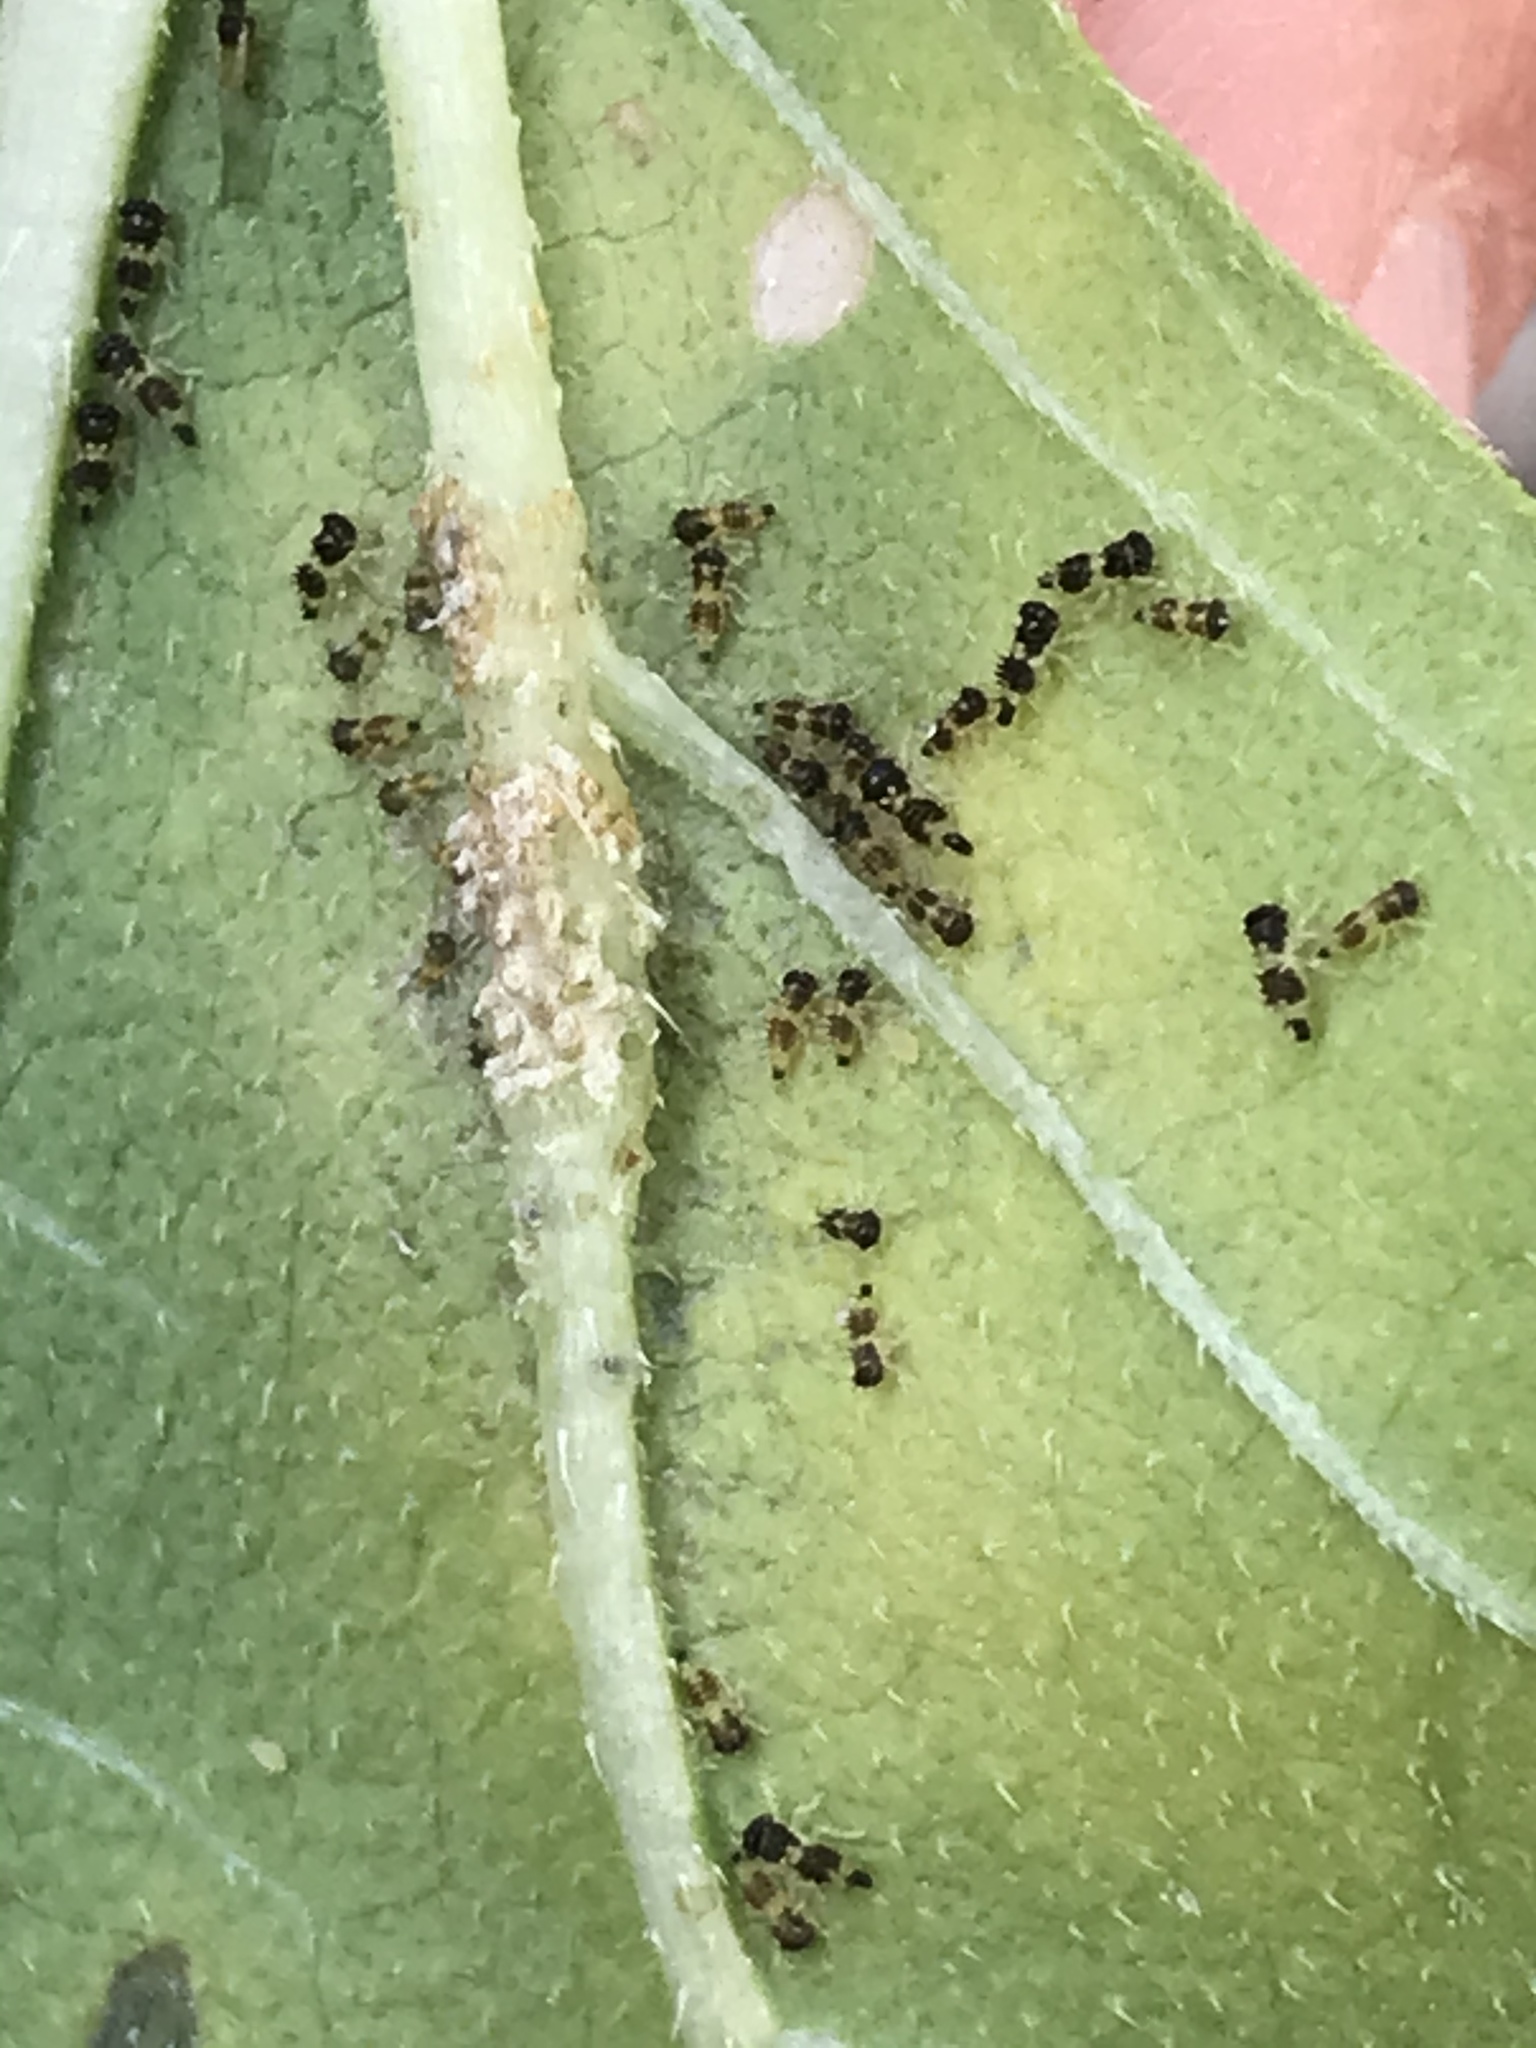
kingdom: Animalia
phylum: Arthropoda
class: Insecta
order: Hemiptera
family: Membracidae
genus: Entylia
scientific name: Entylia carinata
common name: Keeled treehopper
